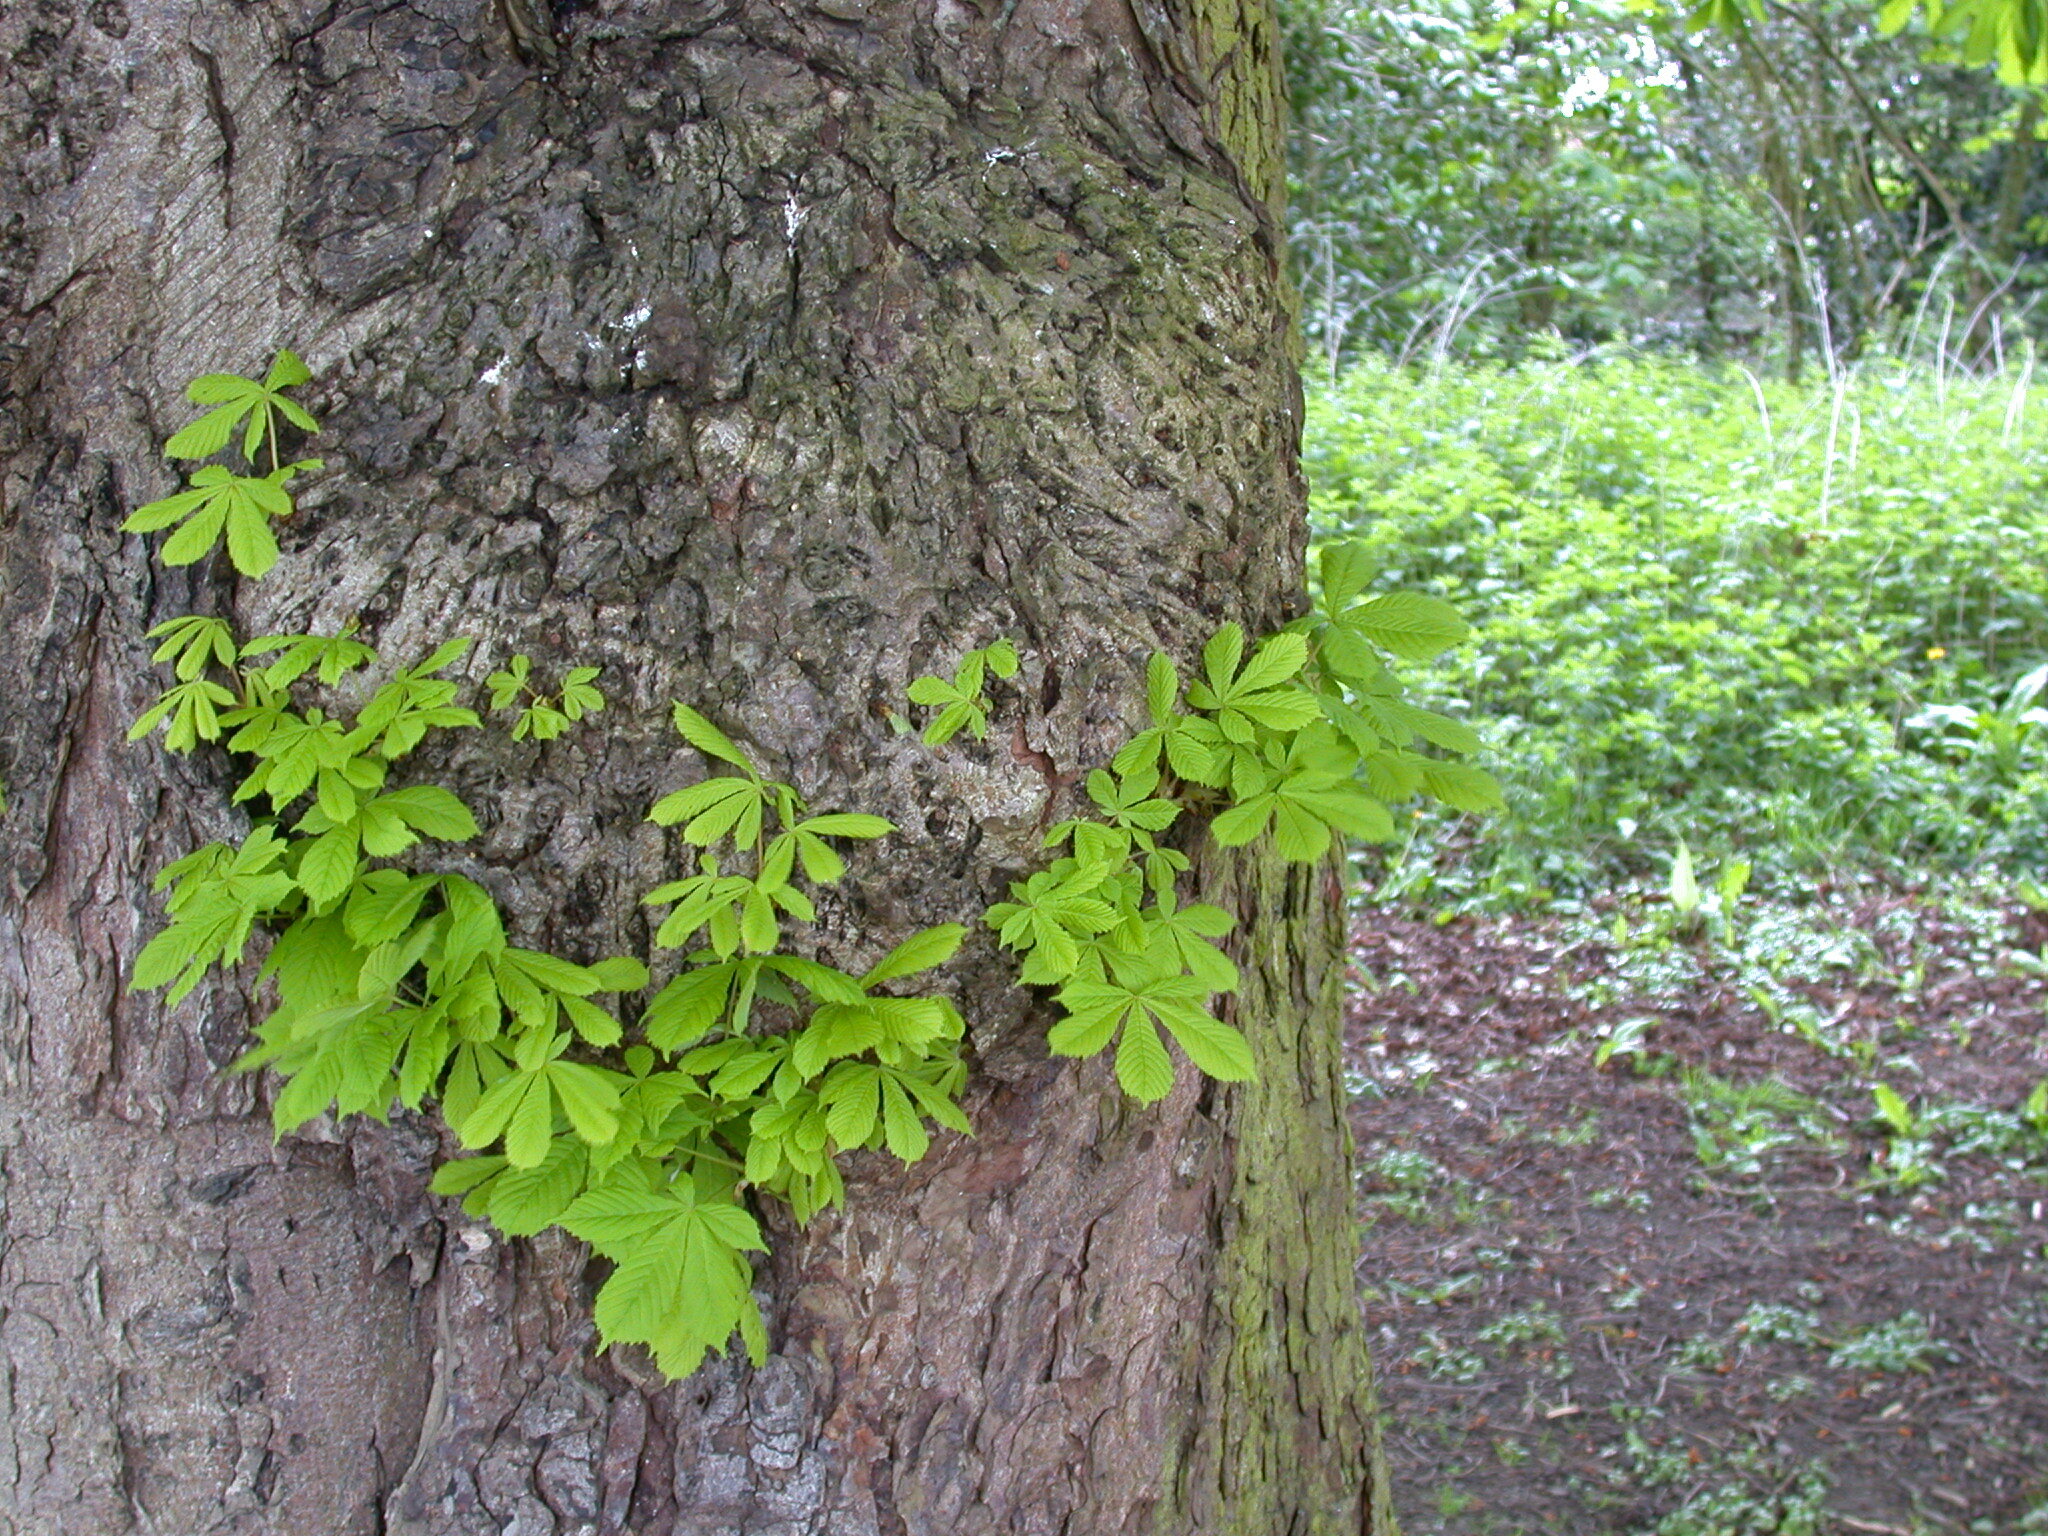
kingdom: Plantae
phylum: Tracheophyta
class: Magnoliopsida
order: Sapindales
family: Sapindaceae
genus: Aesculus
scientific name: Aesculus hippocastanum
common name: Horse-chestnut
